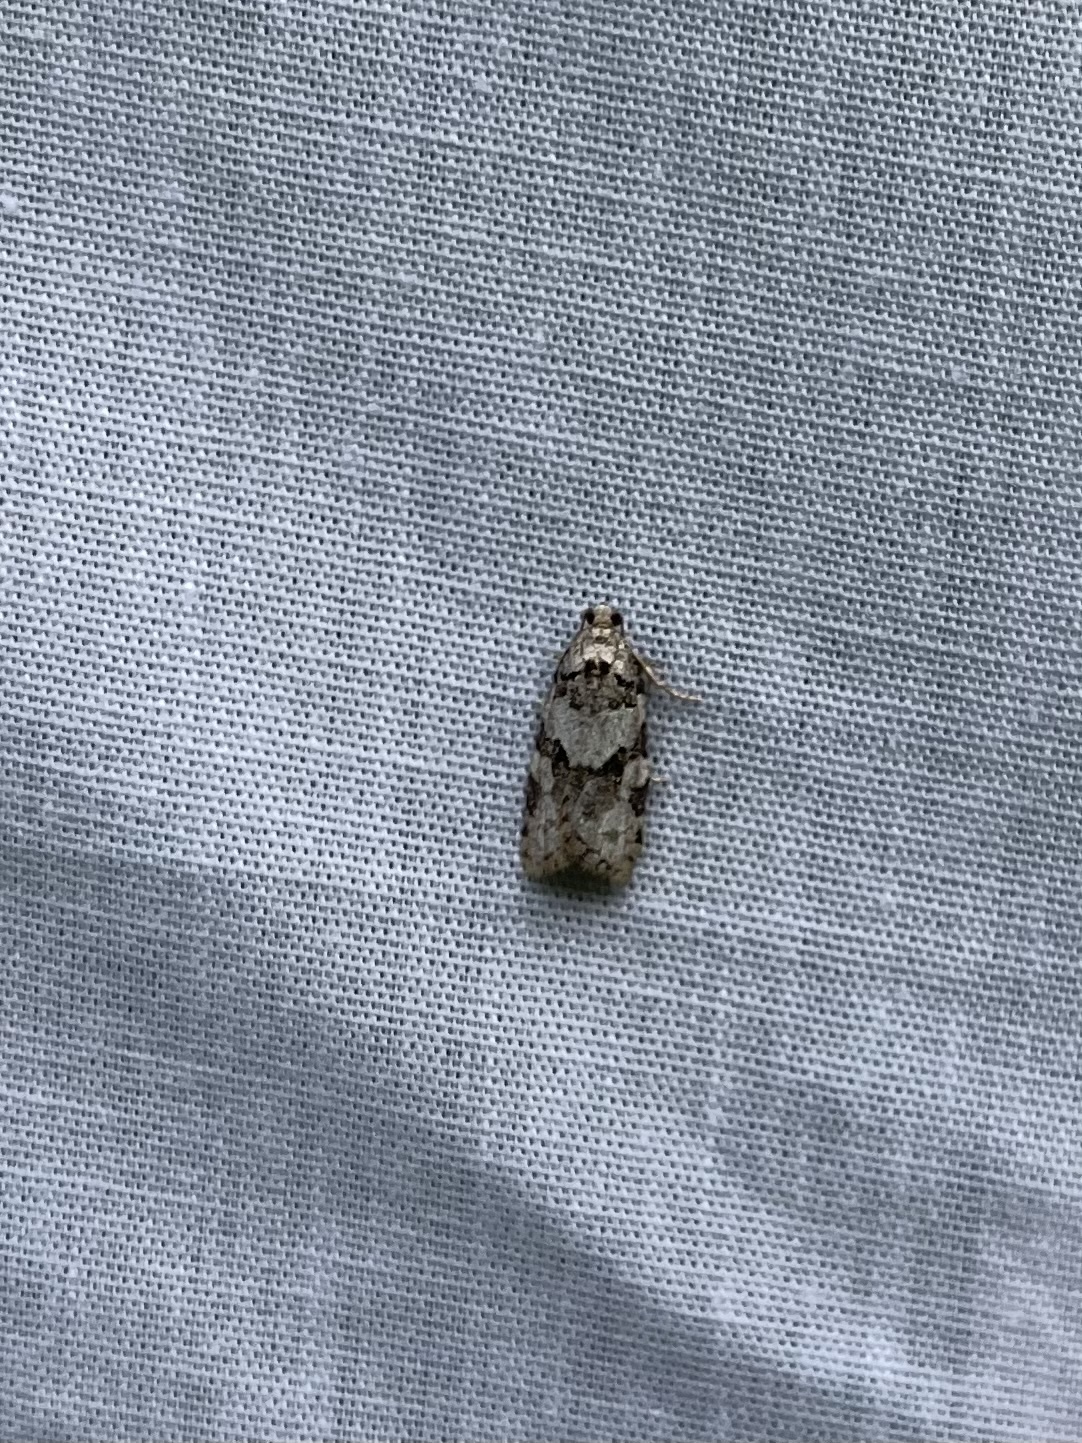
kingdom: Animalia
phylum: Arthropoda
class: Insecta
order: Lepidoptera
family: Tortricidae
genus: Argyrotaenia
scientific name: Argyrotaenia provana
